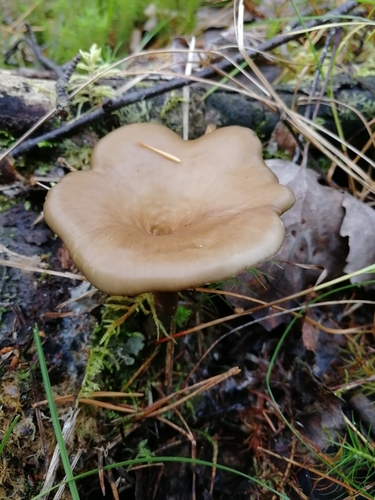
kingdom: Fungi
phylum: Basidiomycota
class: Agaricomycetes
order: Polyporales
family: Polyporaceae
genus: Picipes
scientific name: Picipes
